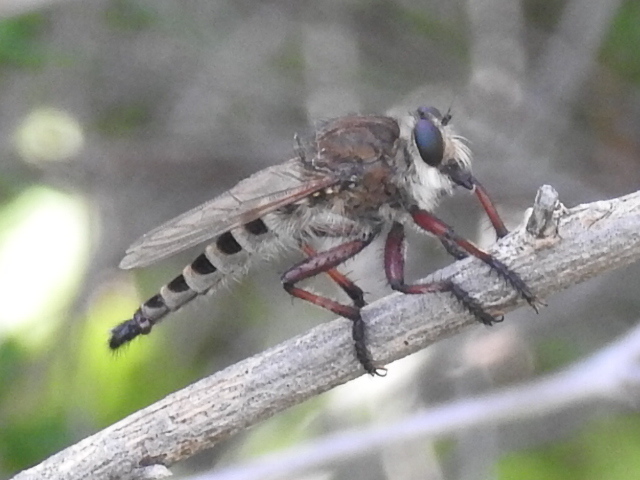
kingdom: Animalia
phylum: Arthropoda
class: Insecta
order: Diptera
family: Asilidae
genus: Promachus
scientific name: Promachus hinei
